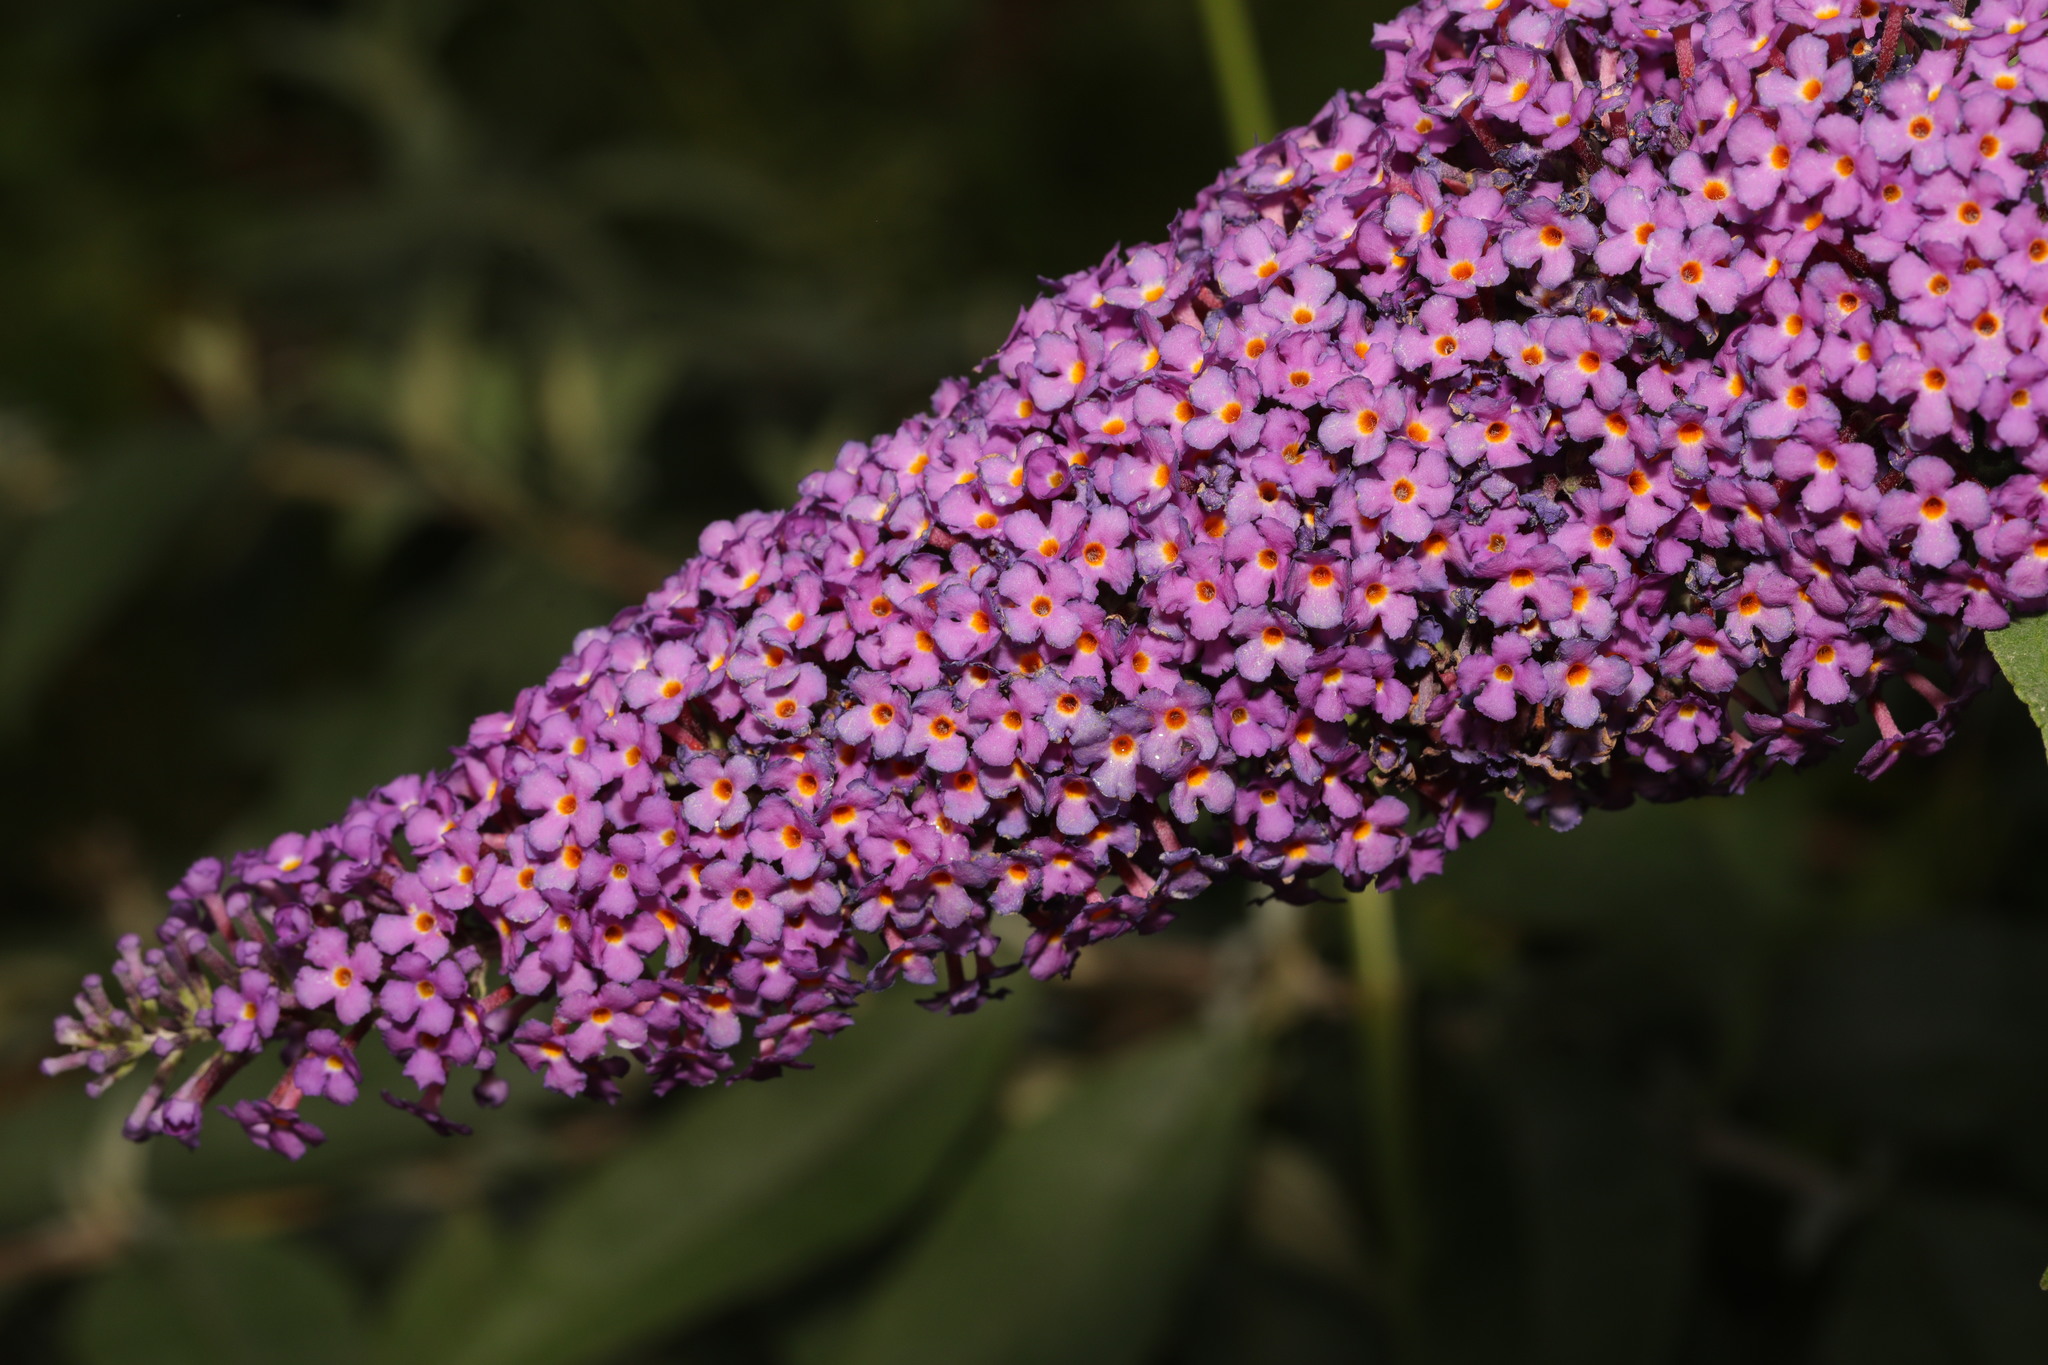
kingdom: Plantae
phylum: Tracheophyta
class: Magnoliopsida
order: Lamiales
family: Scrophulariaceae
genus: Buddleja
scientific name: Buddleja davidii
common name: Butterfly-bush
